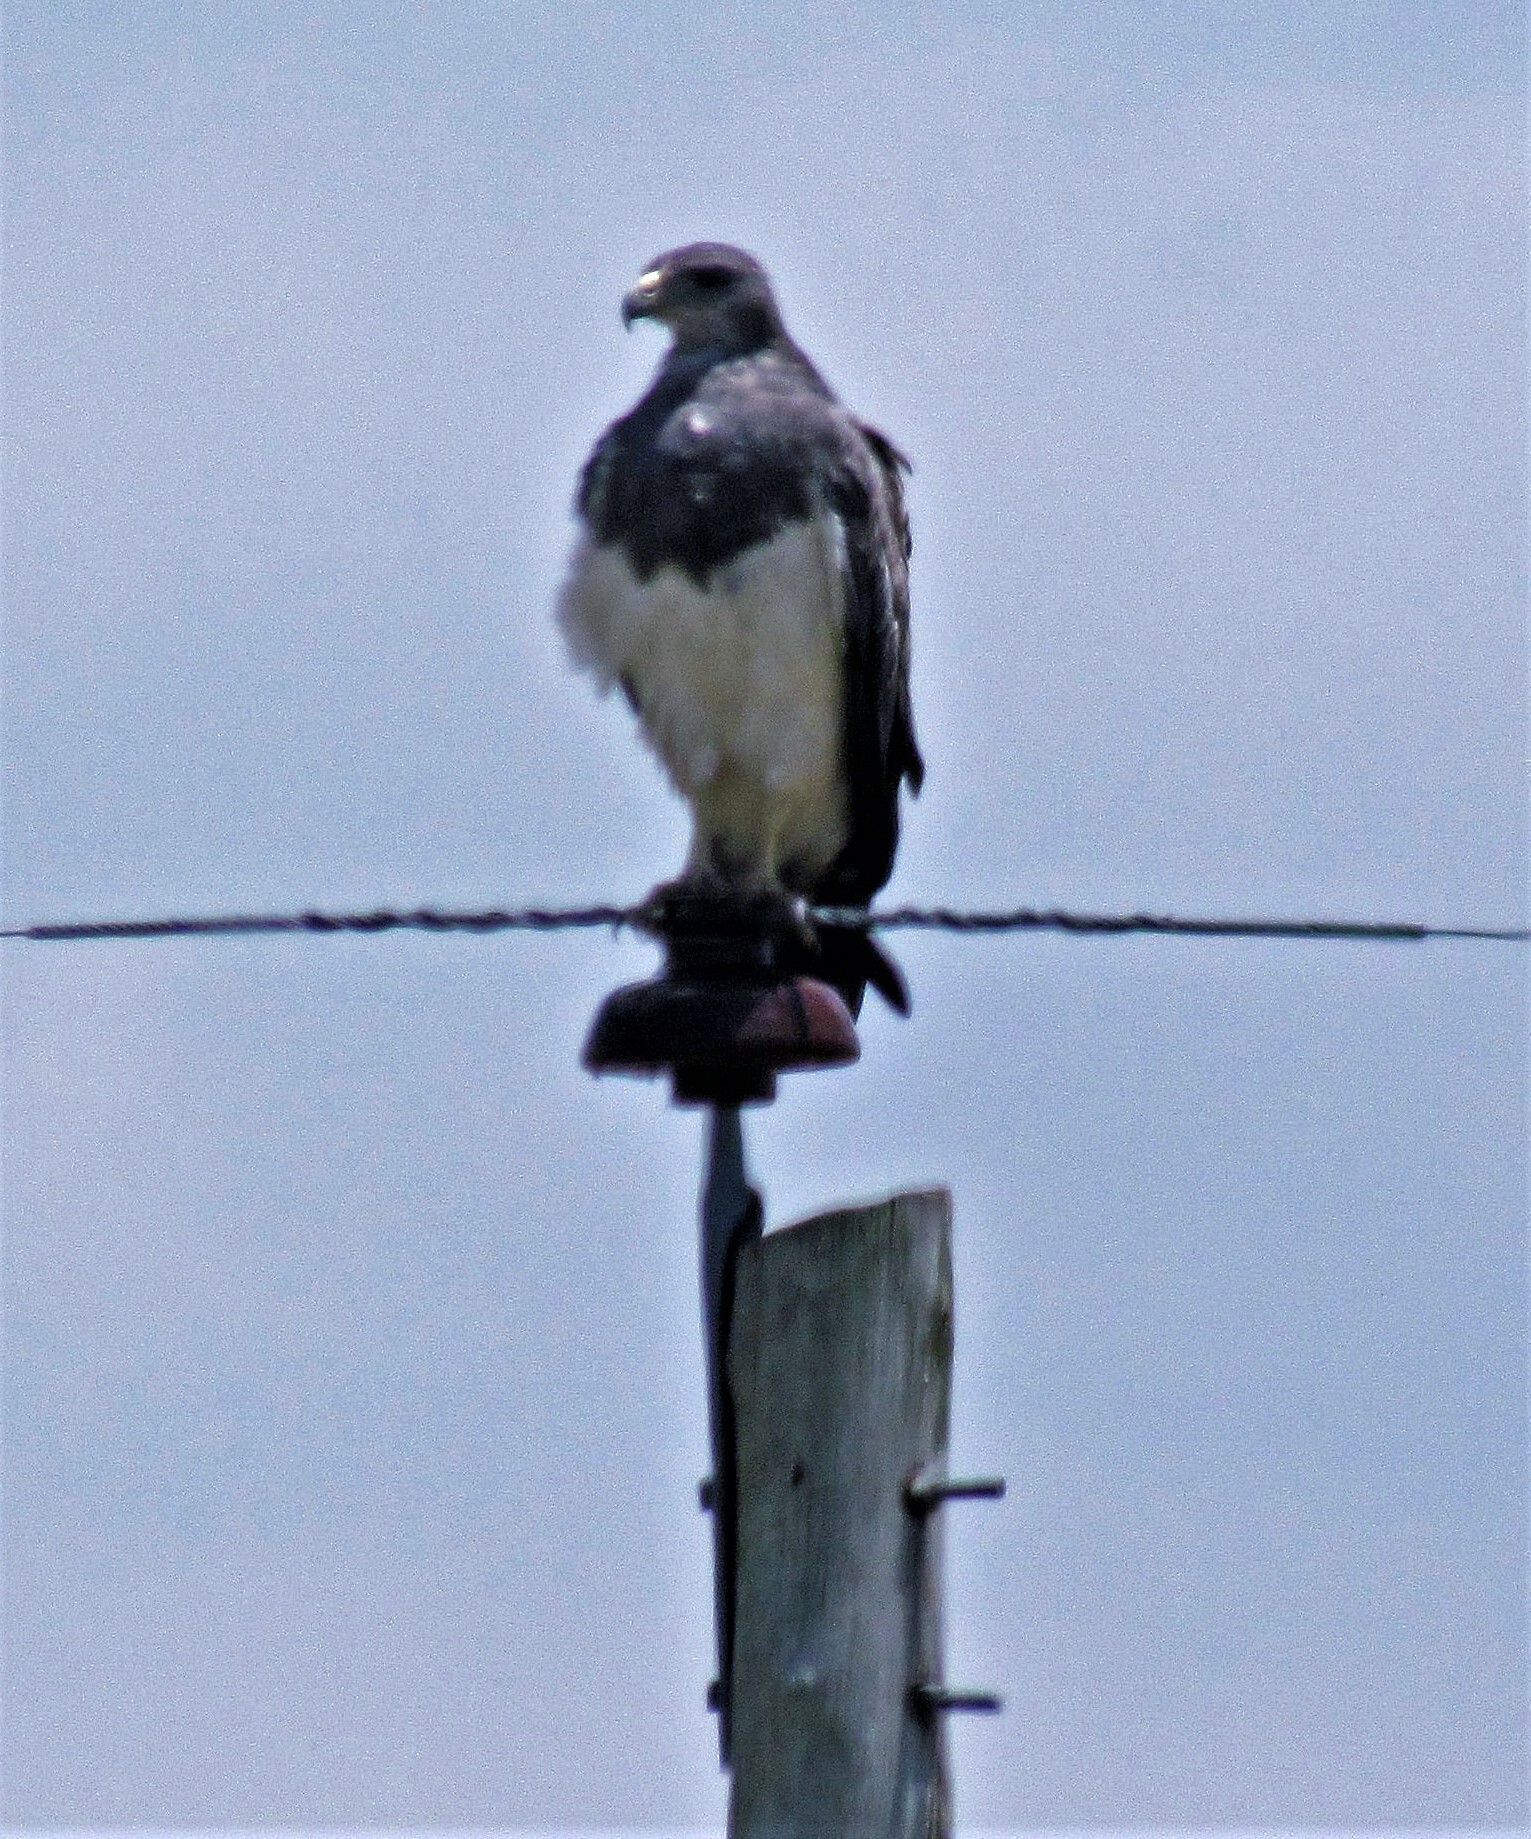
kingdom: Animalia
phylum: Chordata
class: Aves
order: Accipitriformes
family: Accipitridae
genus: Geranoaetus
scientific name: Geranoaetus melanoleucus
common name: Black-chested buzzard-eagle
